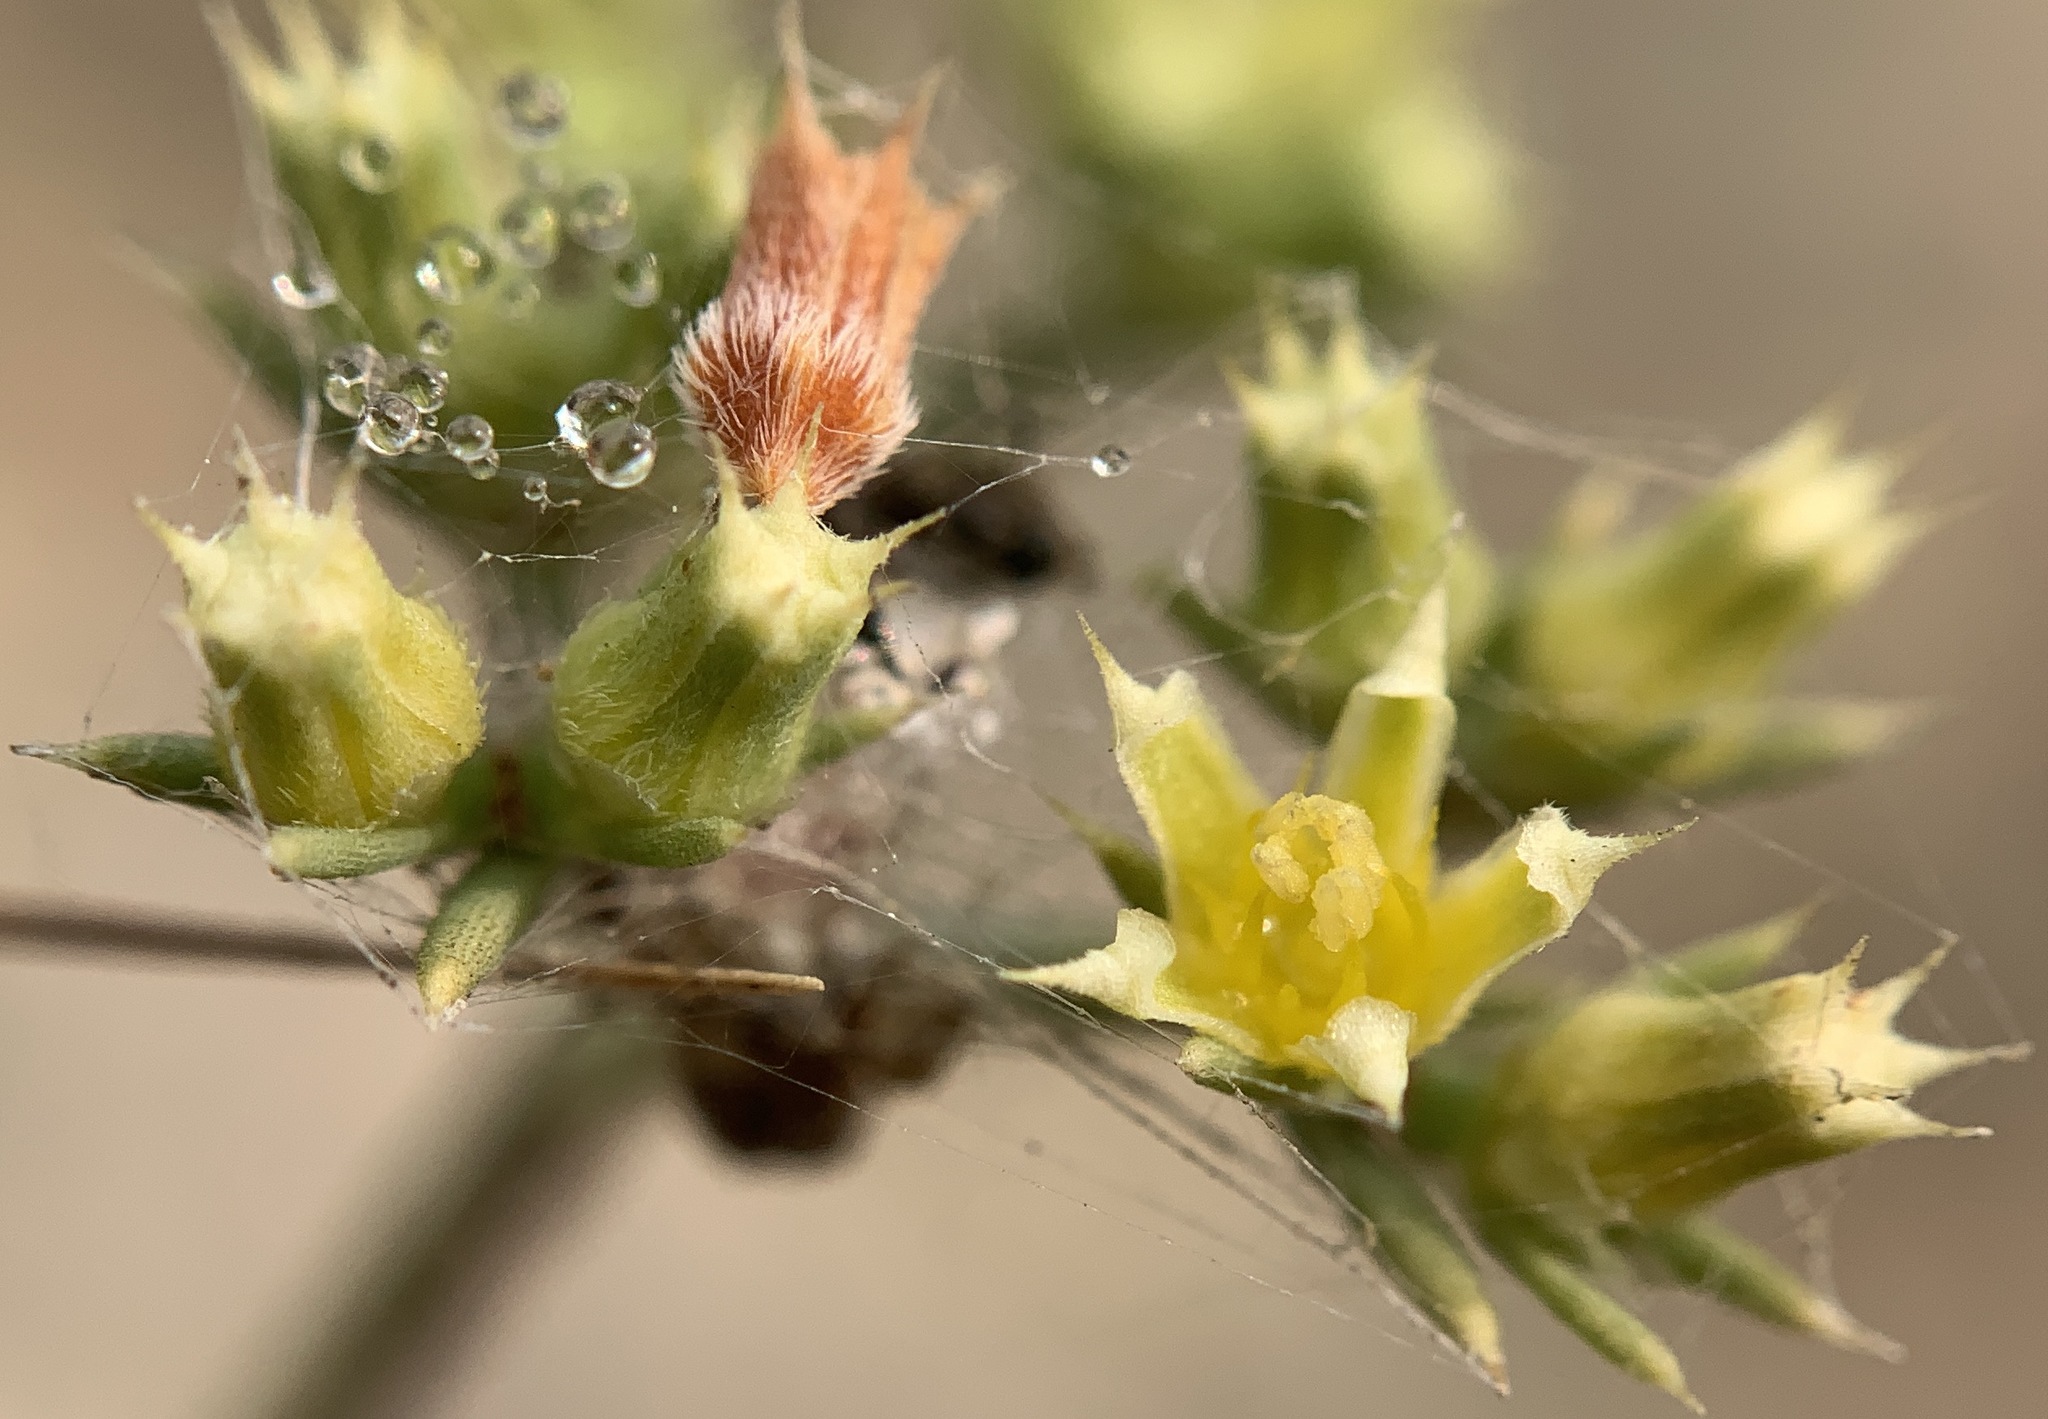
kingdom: Plantae
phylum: Tracheophyta
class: Magnoliopsida
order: Caryophyllales
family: Caryophyllaceae
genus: Paronychia
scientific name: Paronychia jamesii
